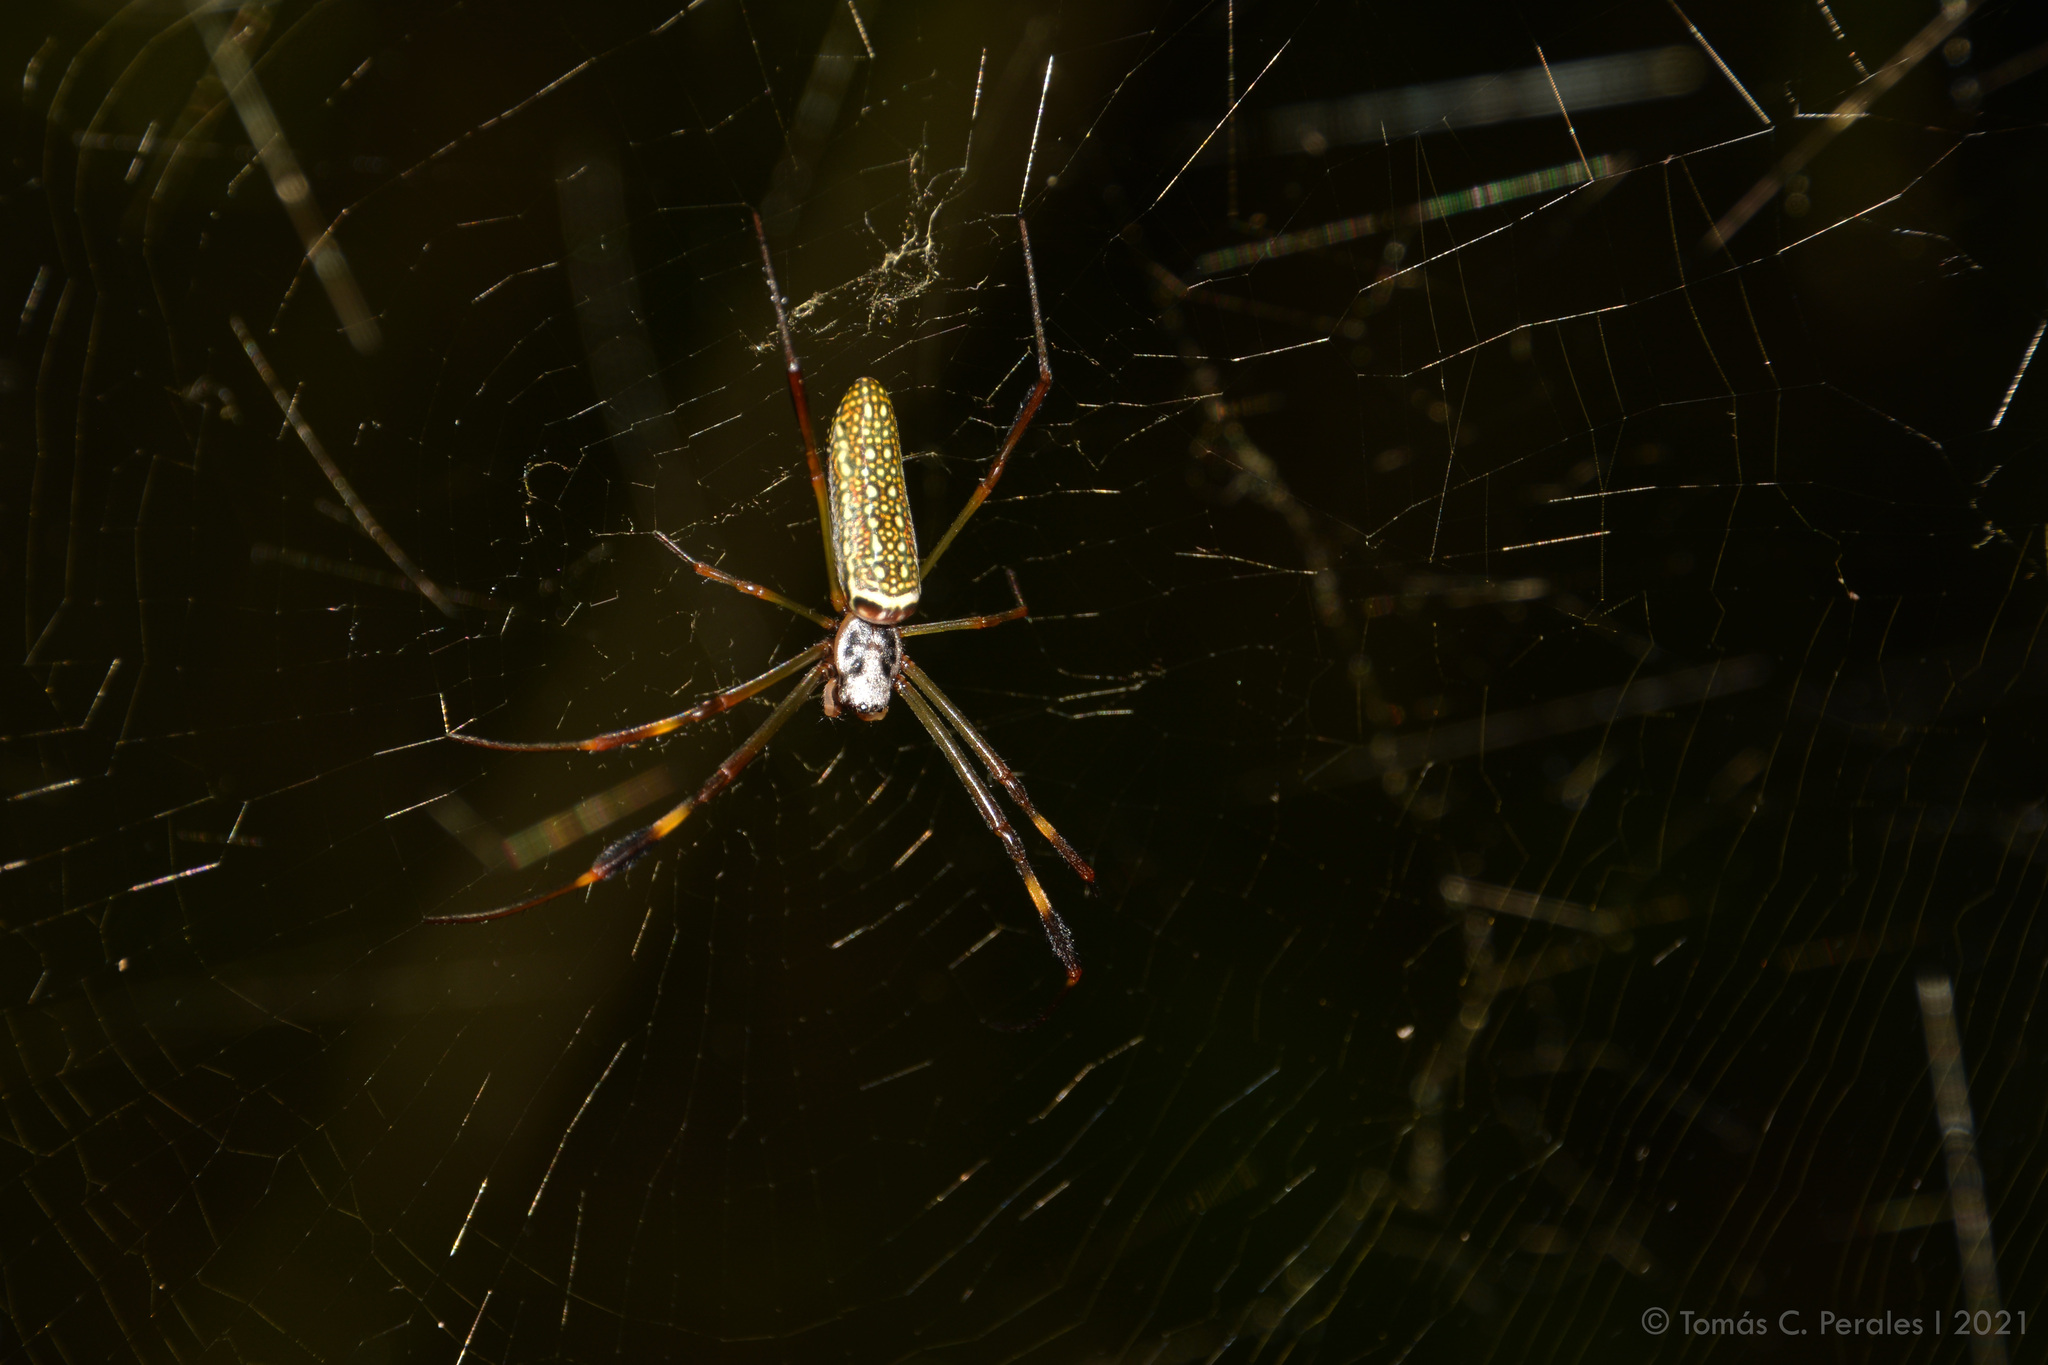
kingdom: Animalia
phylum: Arthropoda
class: Arachnida
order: Araneae
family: Araneidae
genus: Trichonephila
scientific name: Trichonephila clavipes
